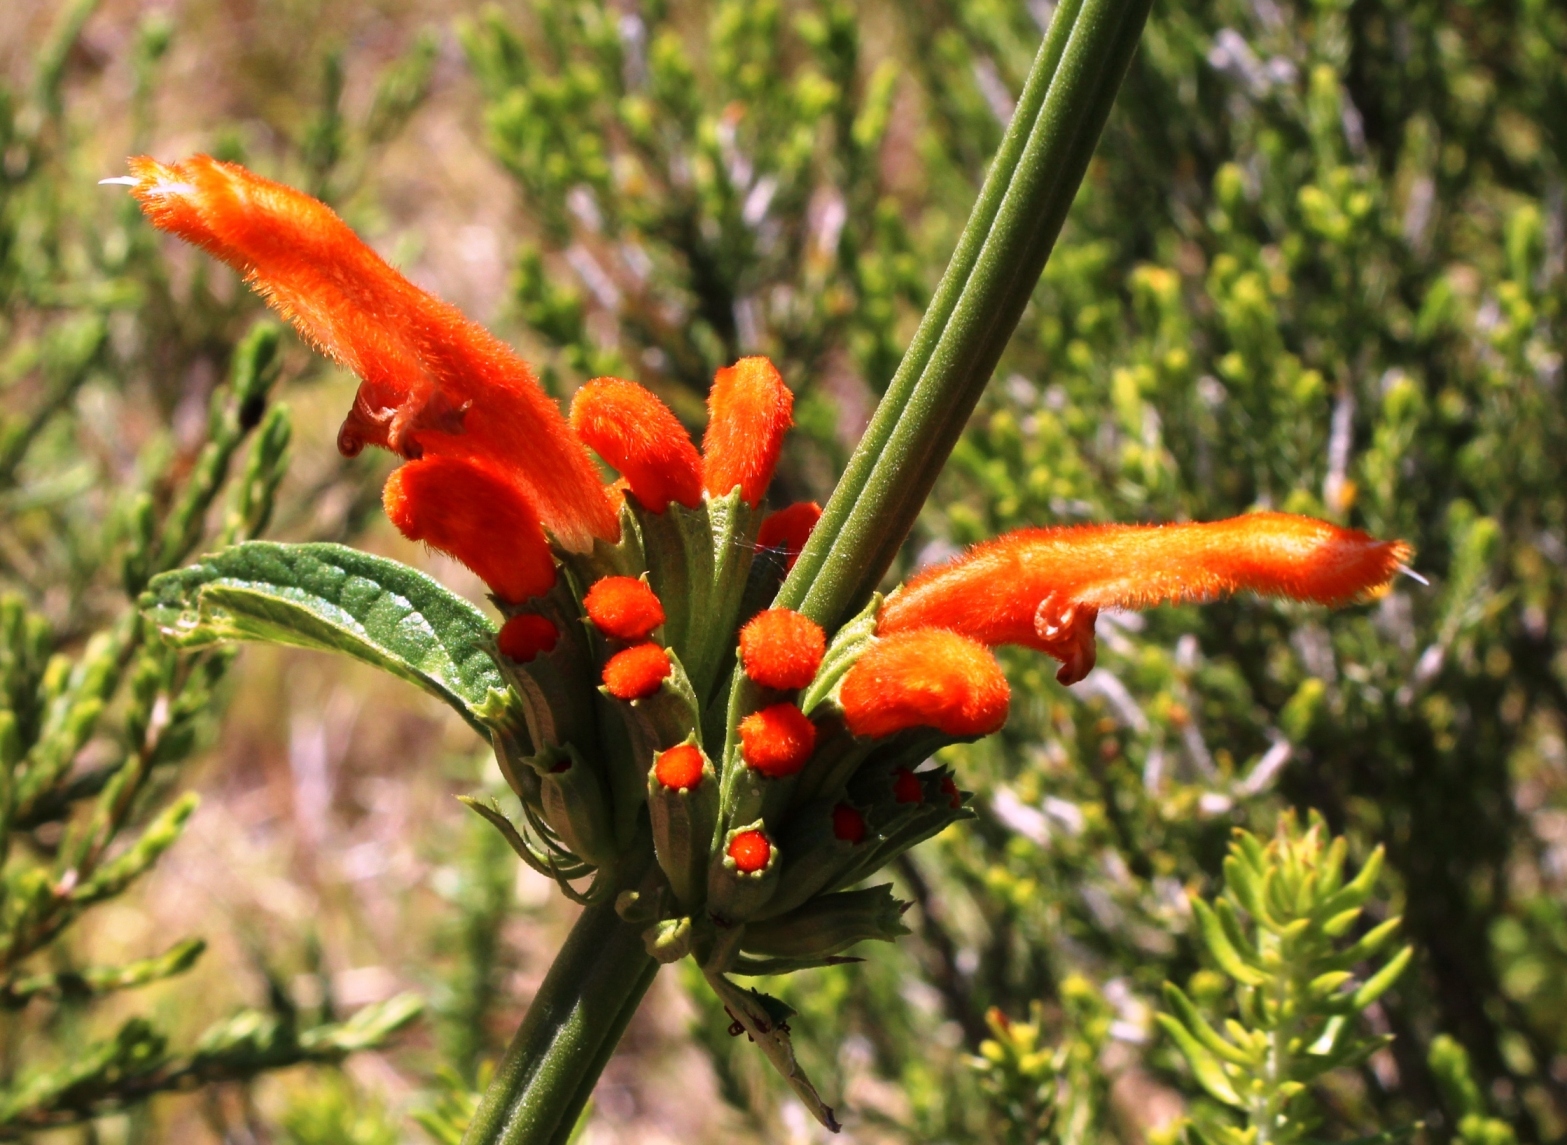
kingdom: Plantae
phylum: Tracheophyta
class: Magnoliopsida
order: Lamiales
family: Lamiaceae
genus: Leonotis
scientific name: Leonotis leonurus
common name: Lion's ear
